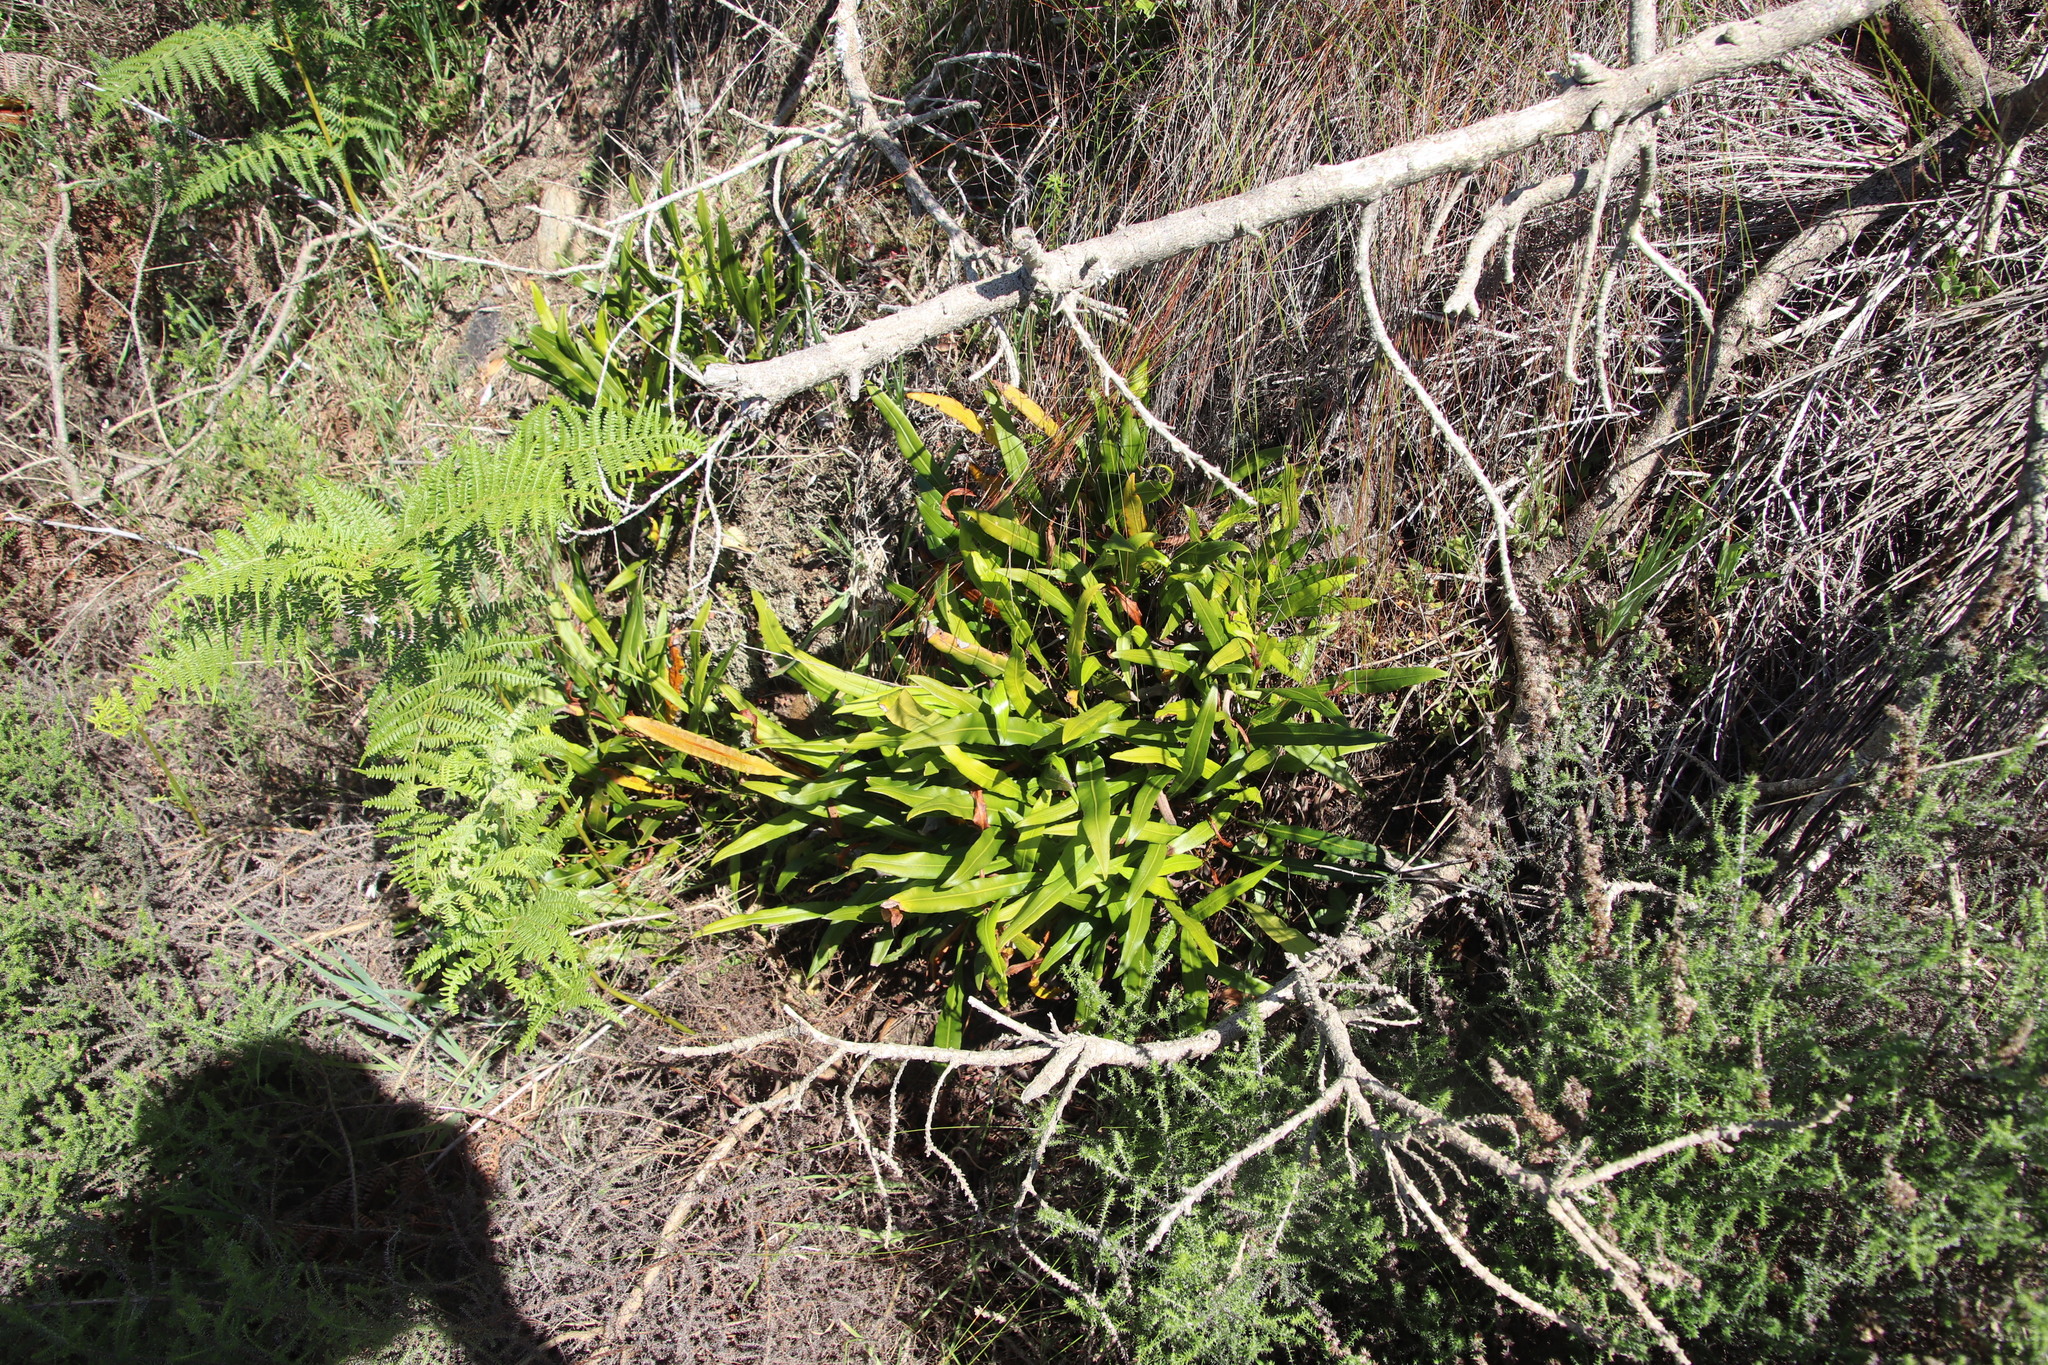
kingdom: Plantae
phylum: Tracheophyta
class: Polypodiopsida
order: Polypodiales
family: Dryopteridaceae
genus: Elaphoglossum
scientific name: Elaphoglossum acrostichoides
